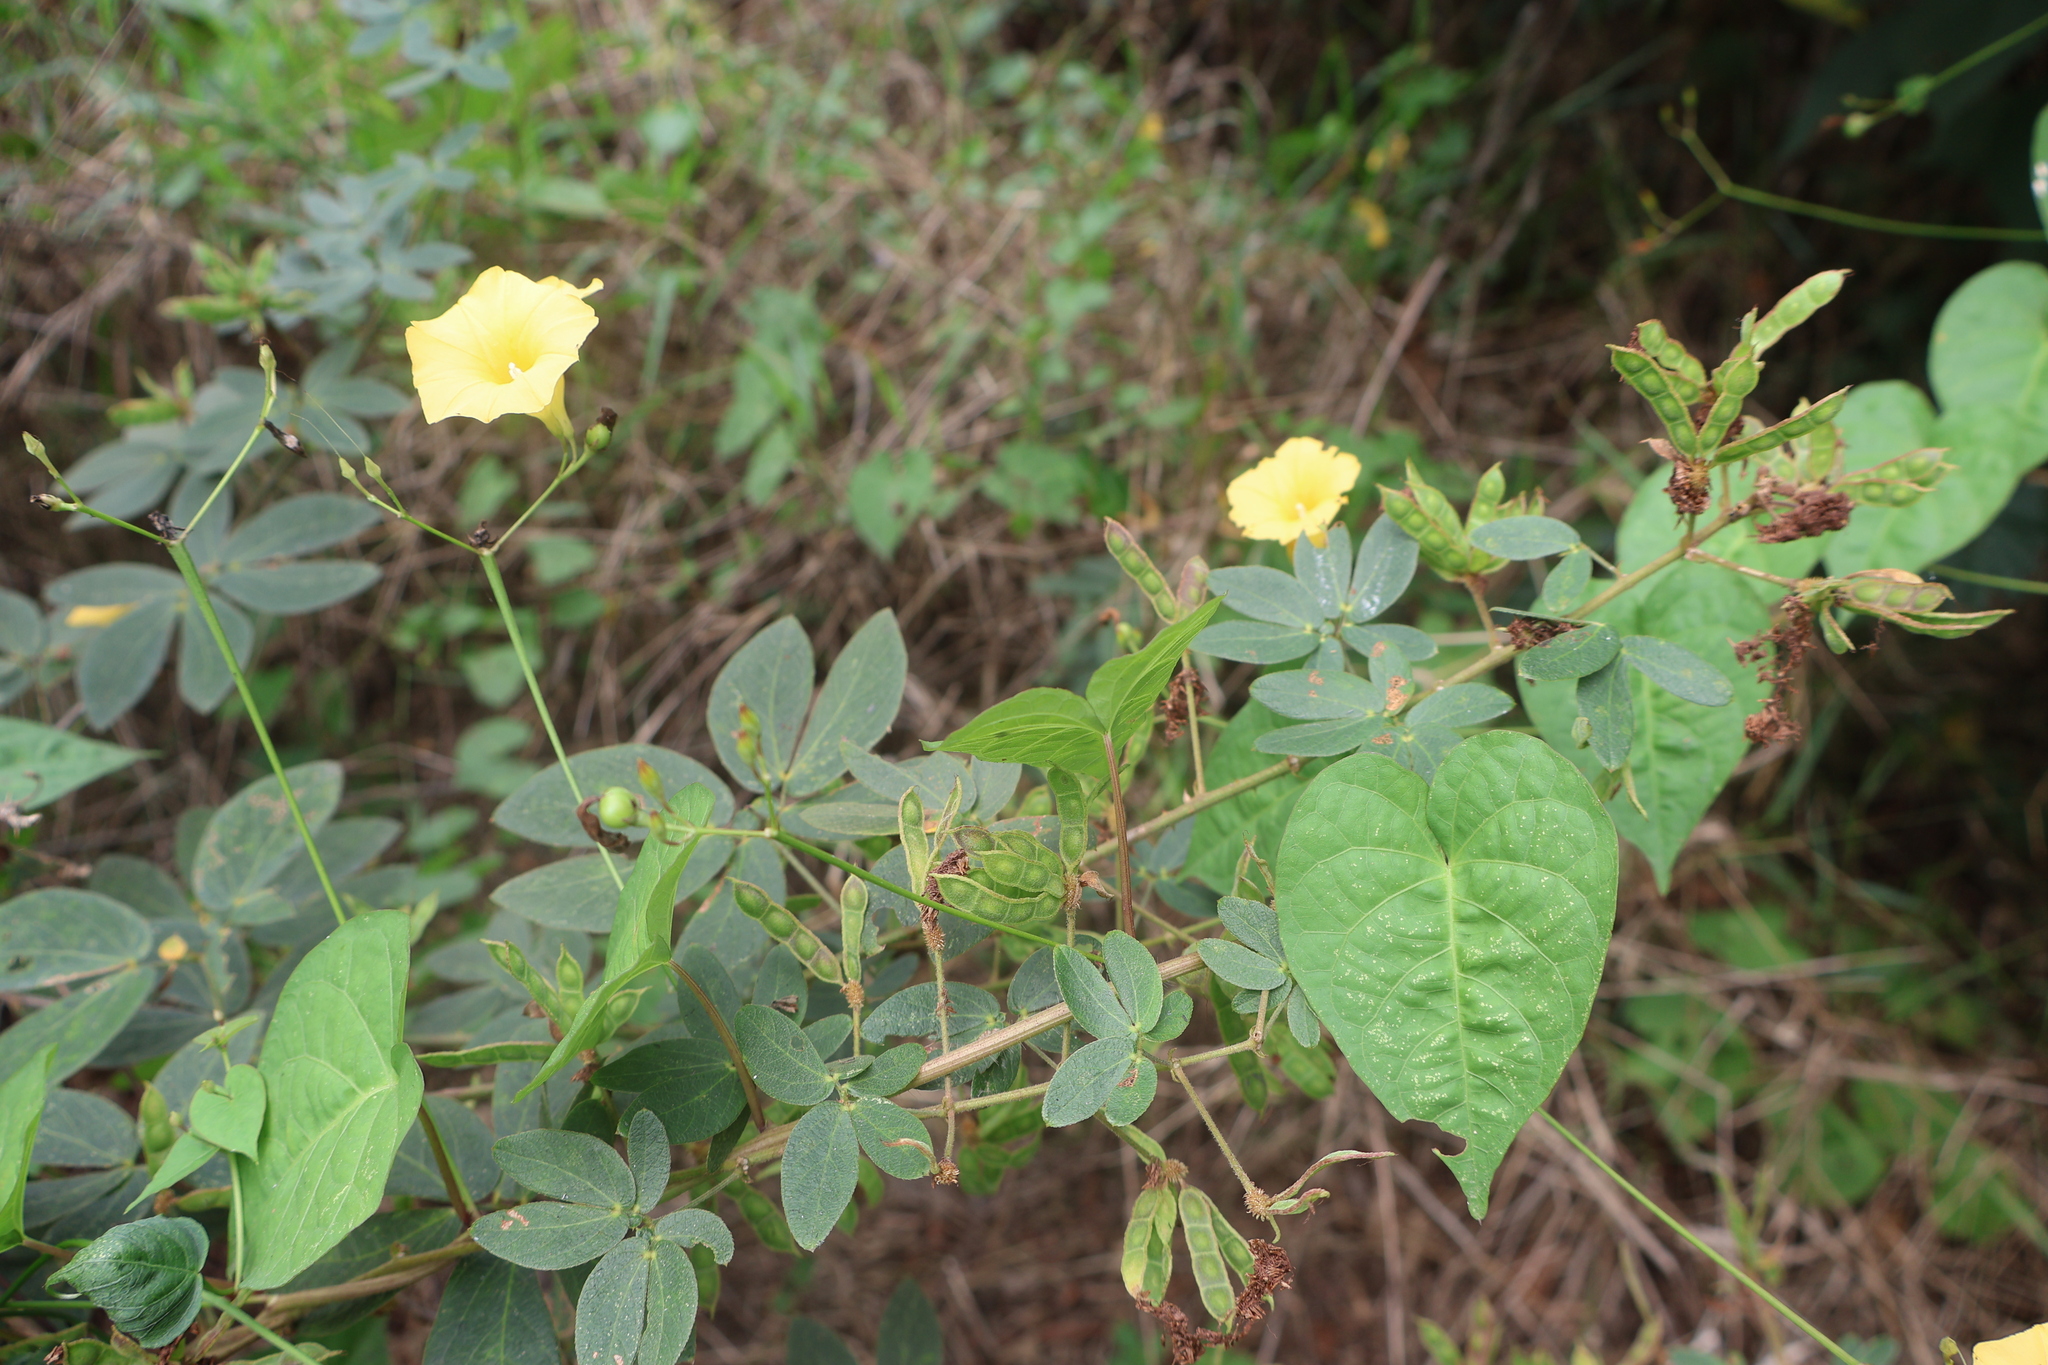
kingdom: Plantae
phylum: Tracheophyta
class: Magnoliopsida
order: Solanales
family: Convolvulaceae
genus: Ipomoea
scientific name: Ipomoea microsepala
